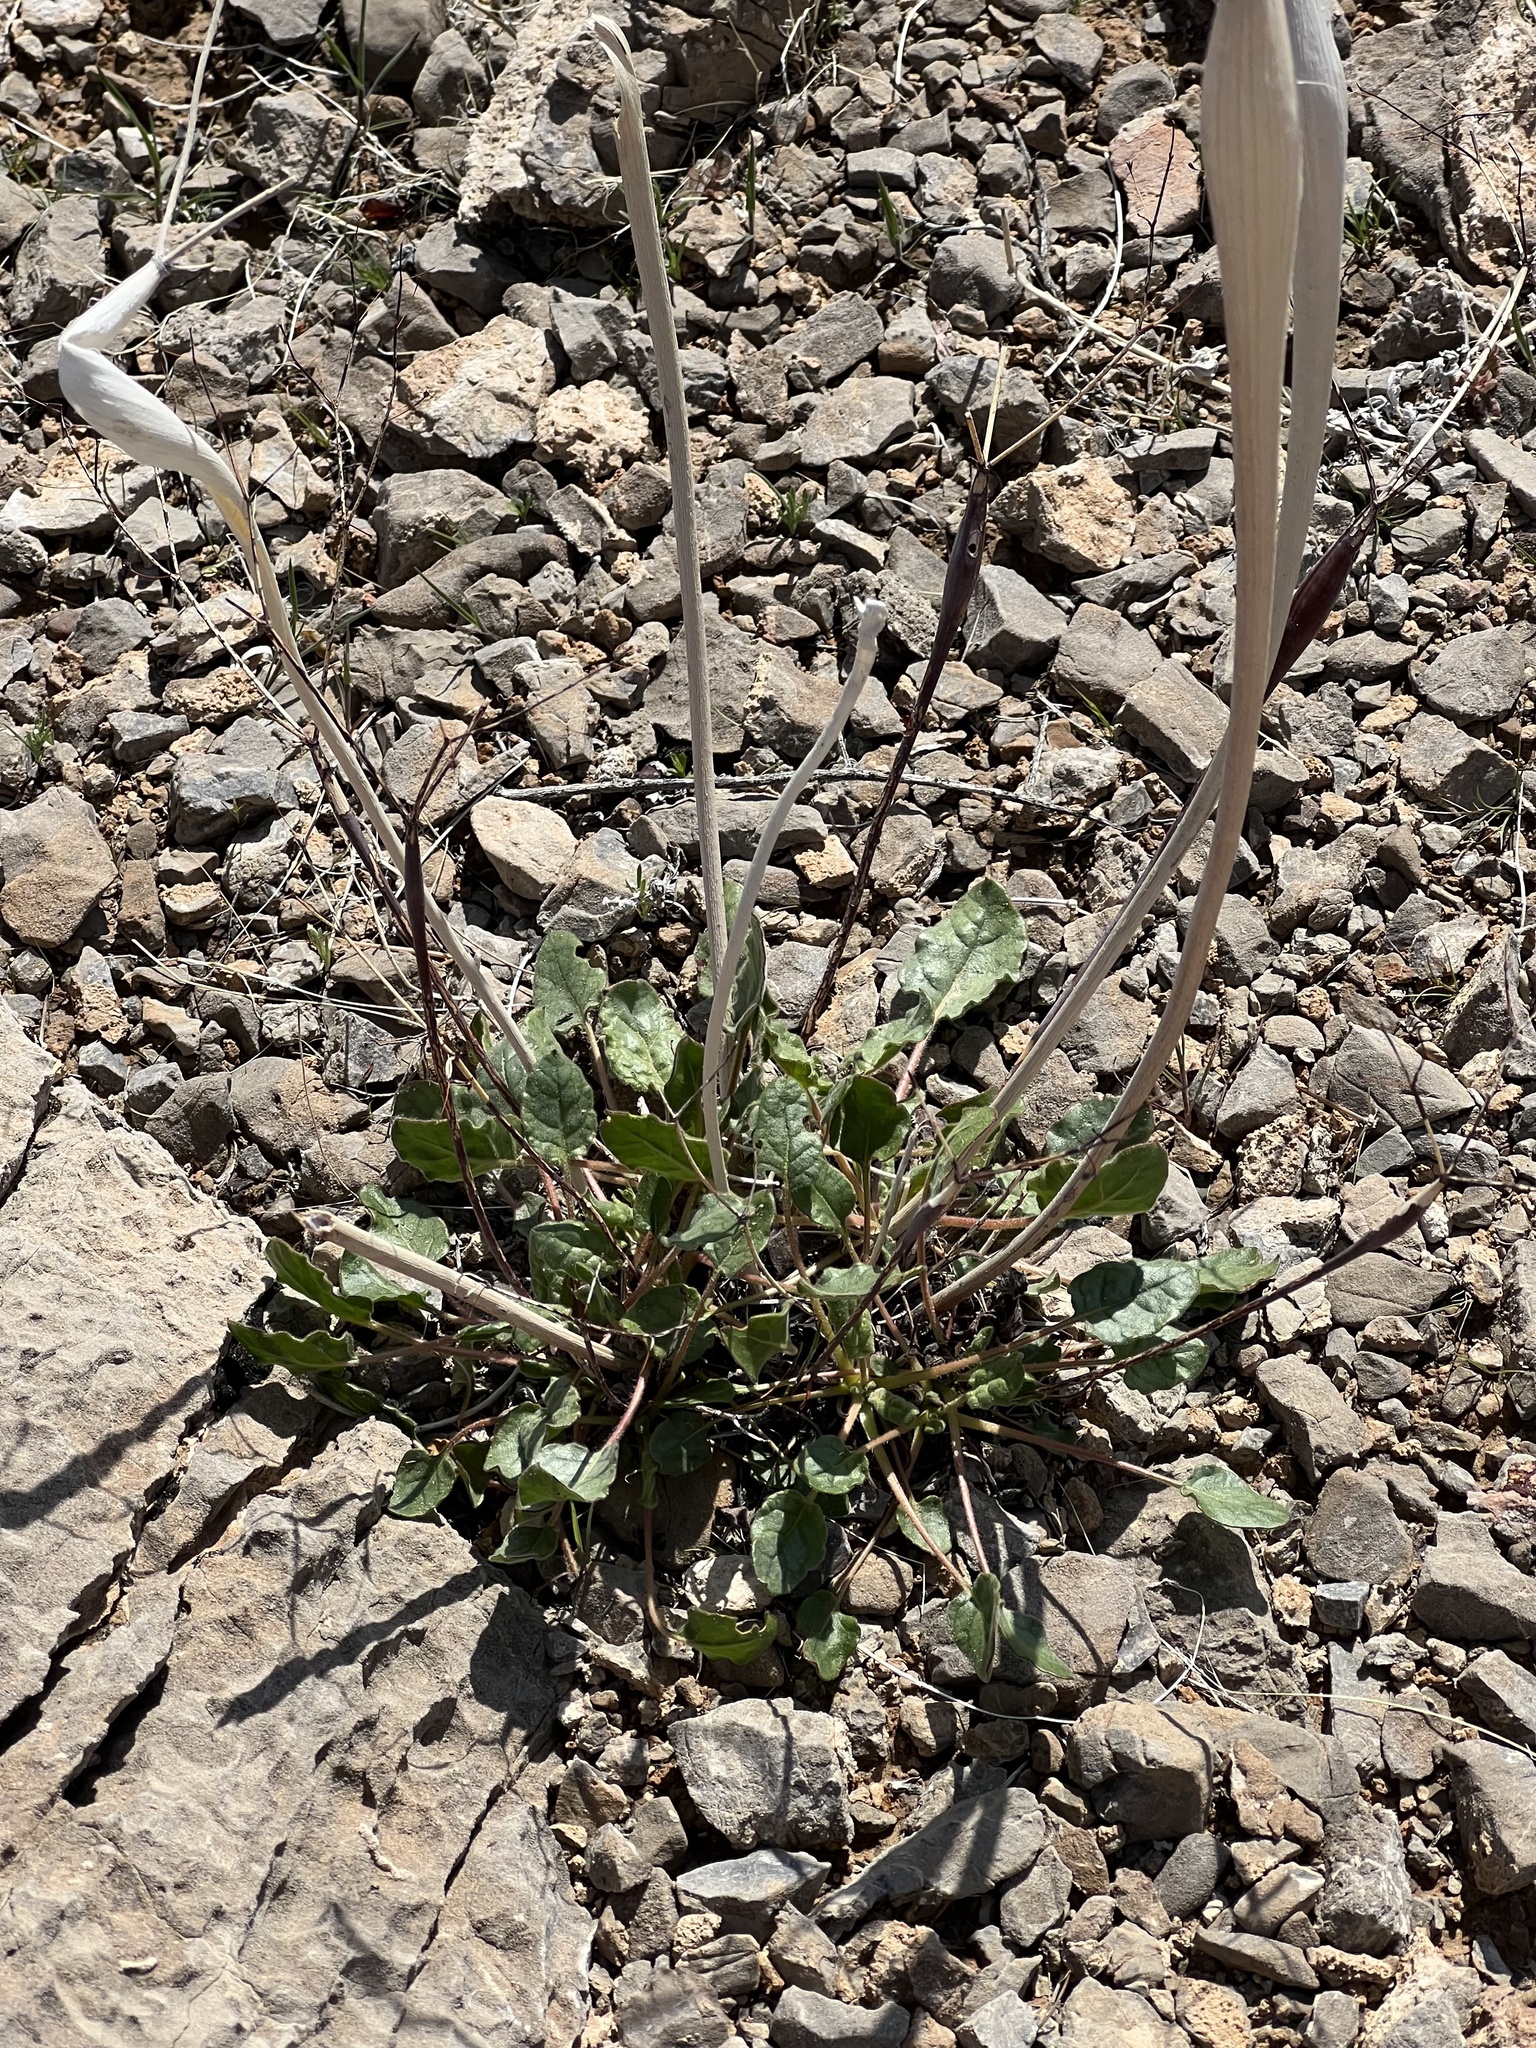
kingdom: Plantae
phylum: Tracheophyta
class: Magnoliopsida
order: Caryophyllales
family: Polygonaceae
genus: Eriogonum
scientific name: Eriogonum inflatum
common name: Desert trumpet
